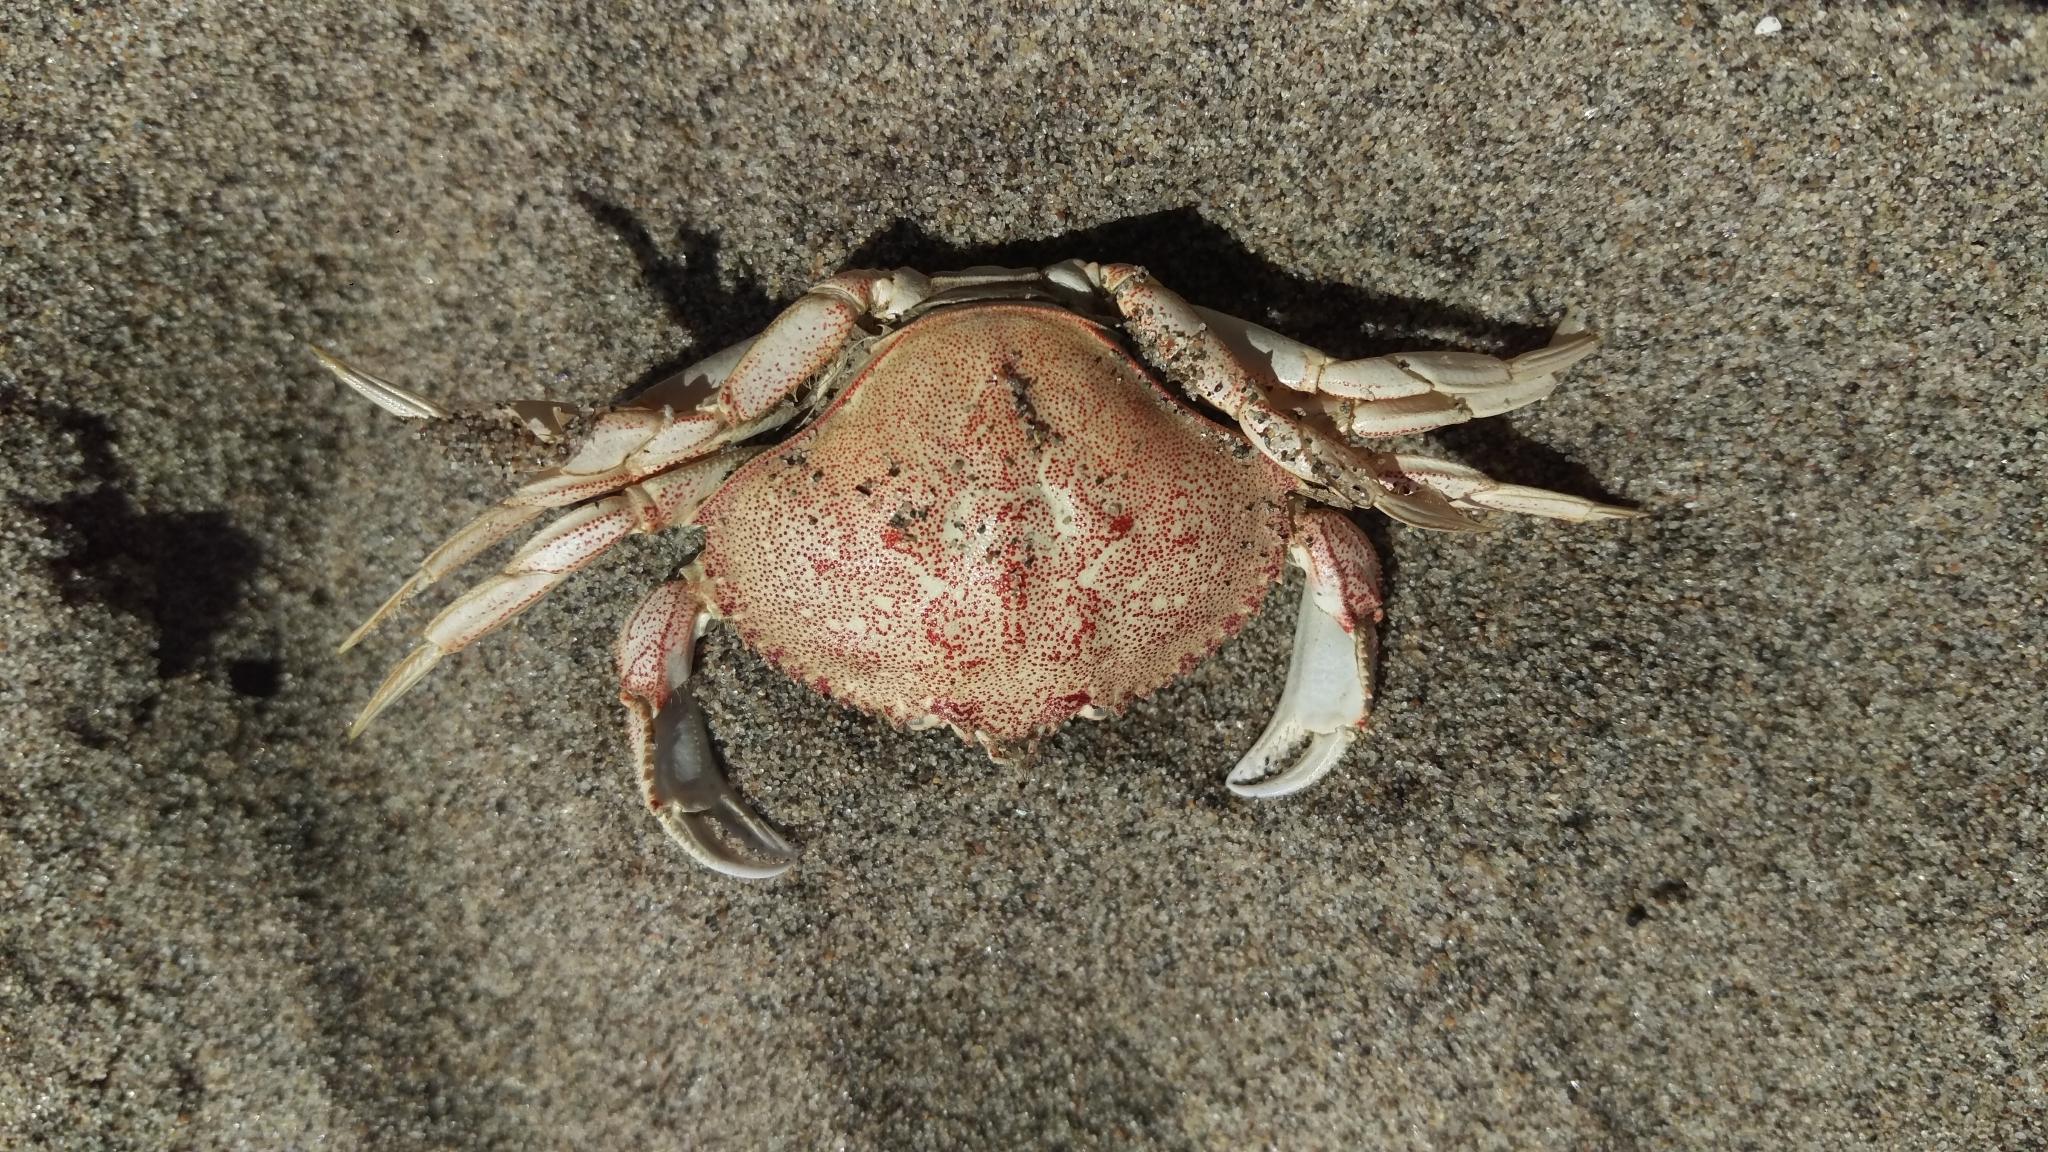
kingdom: Animalia
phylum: Arthropoda
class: Malacostraca
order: Decapoda
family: Cancridae
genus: Metacarcinus
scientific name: Metacarcinus magister
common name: Californian crab
